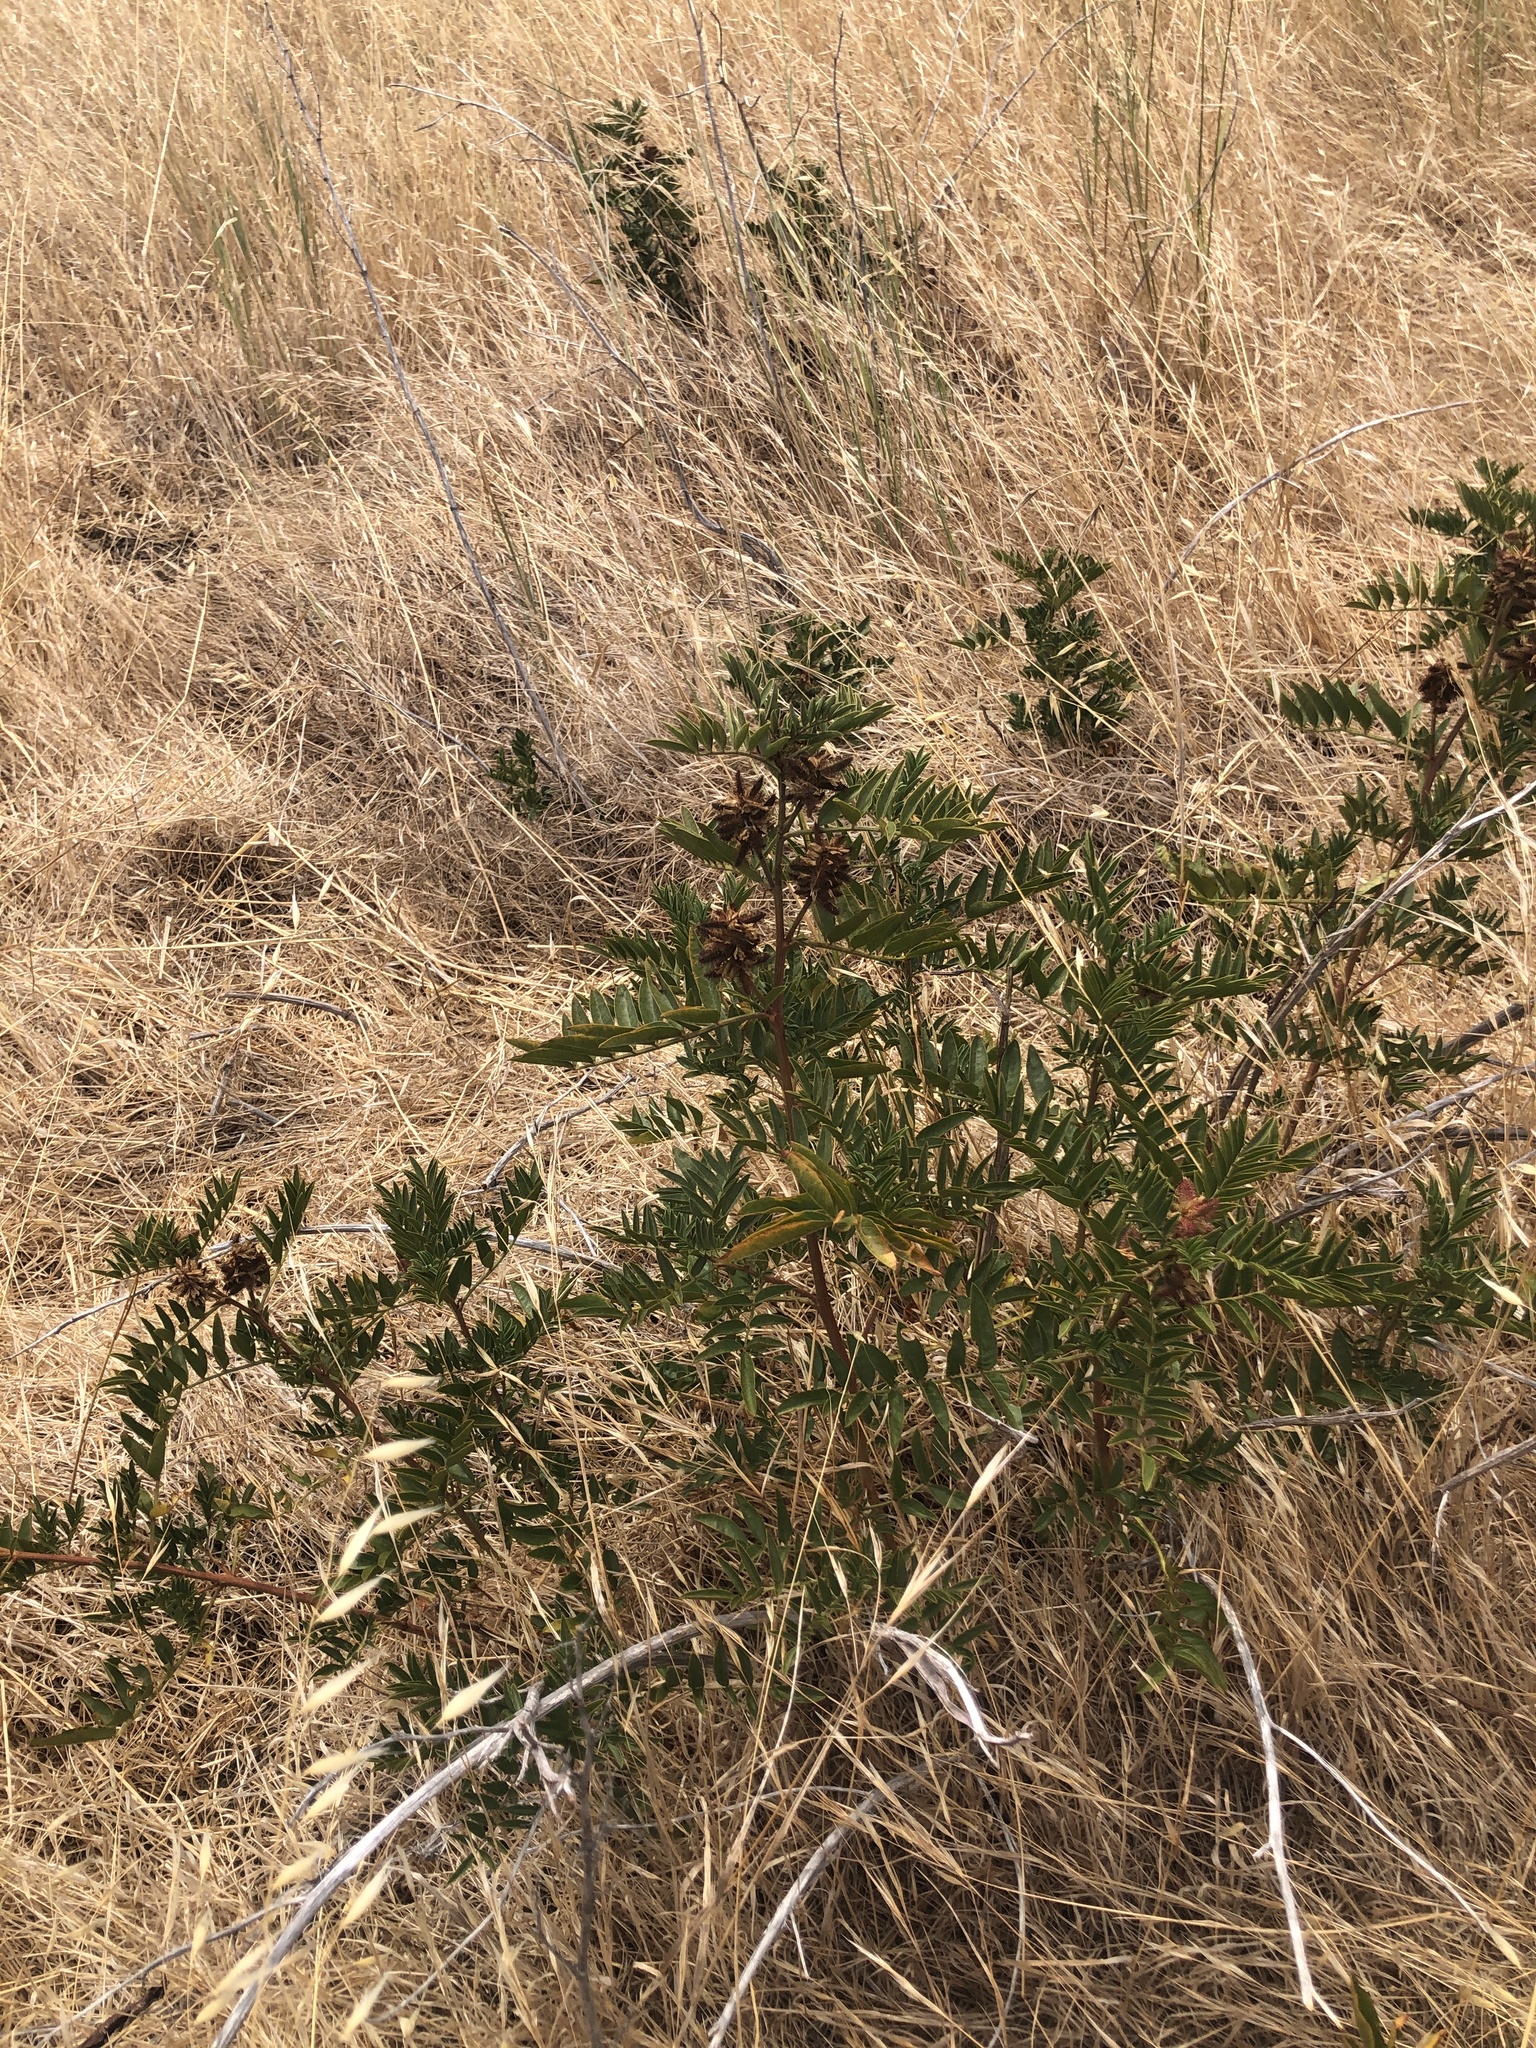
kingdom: Plantae
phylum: Tracheophyta
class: Magnoliopsida
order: Fabales
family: Fabaceae
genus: Glycyrrhiza
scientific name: Glycyrrhiza lepidota
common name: American liquorice
